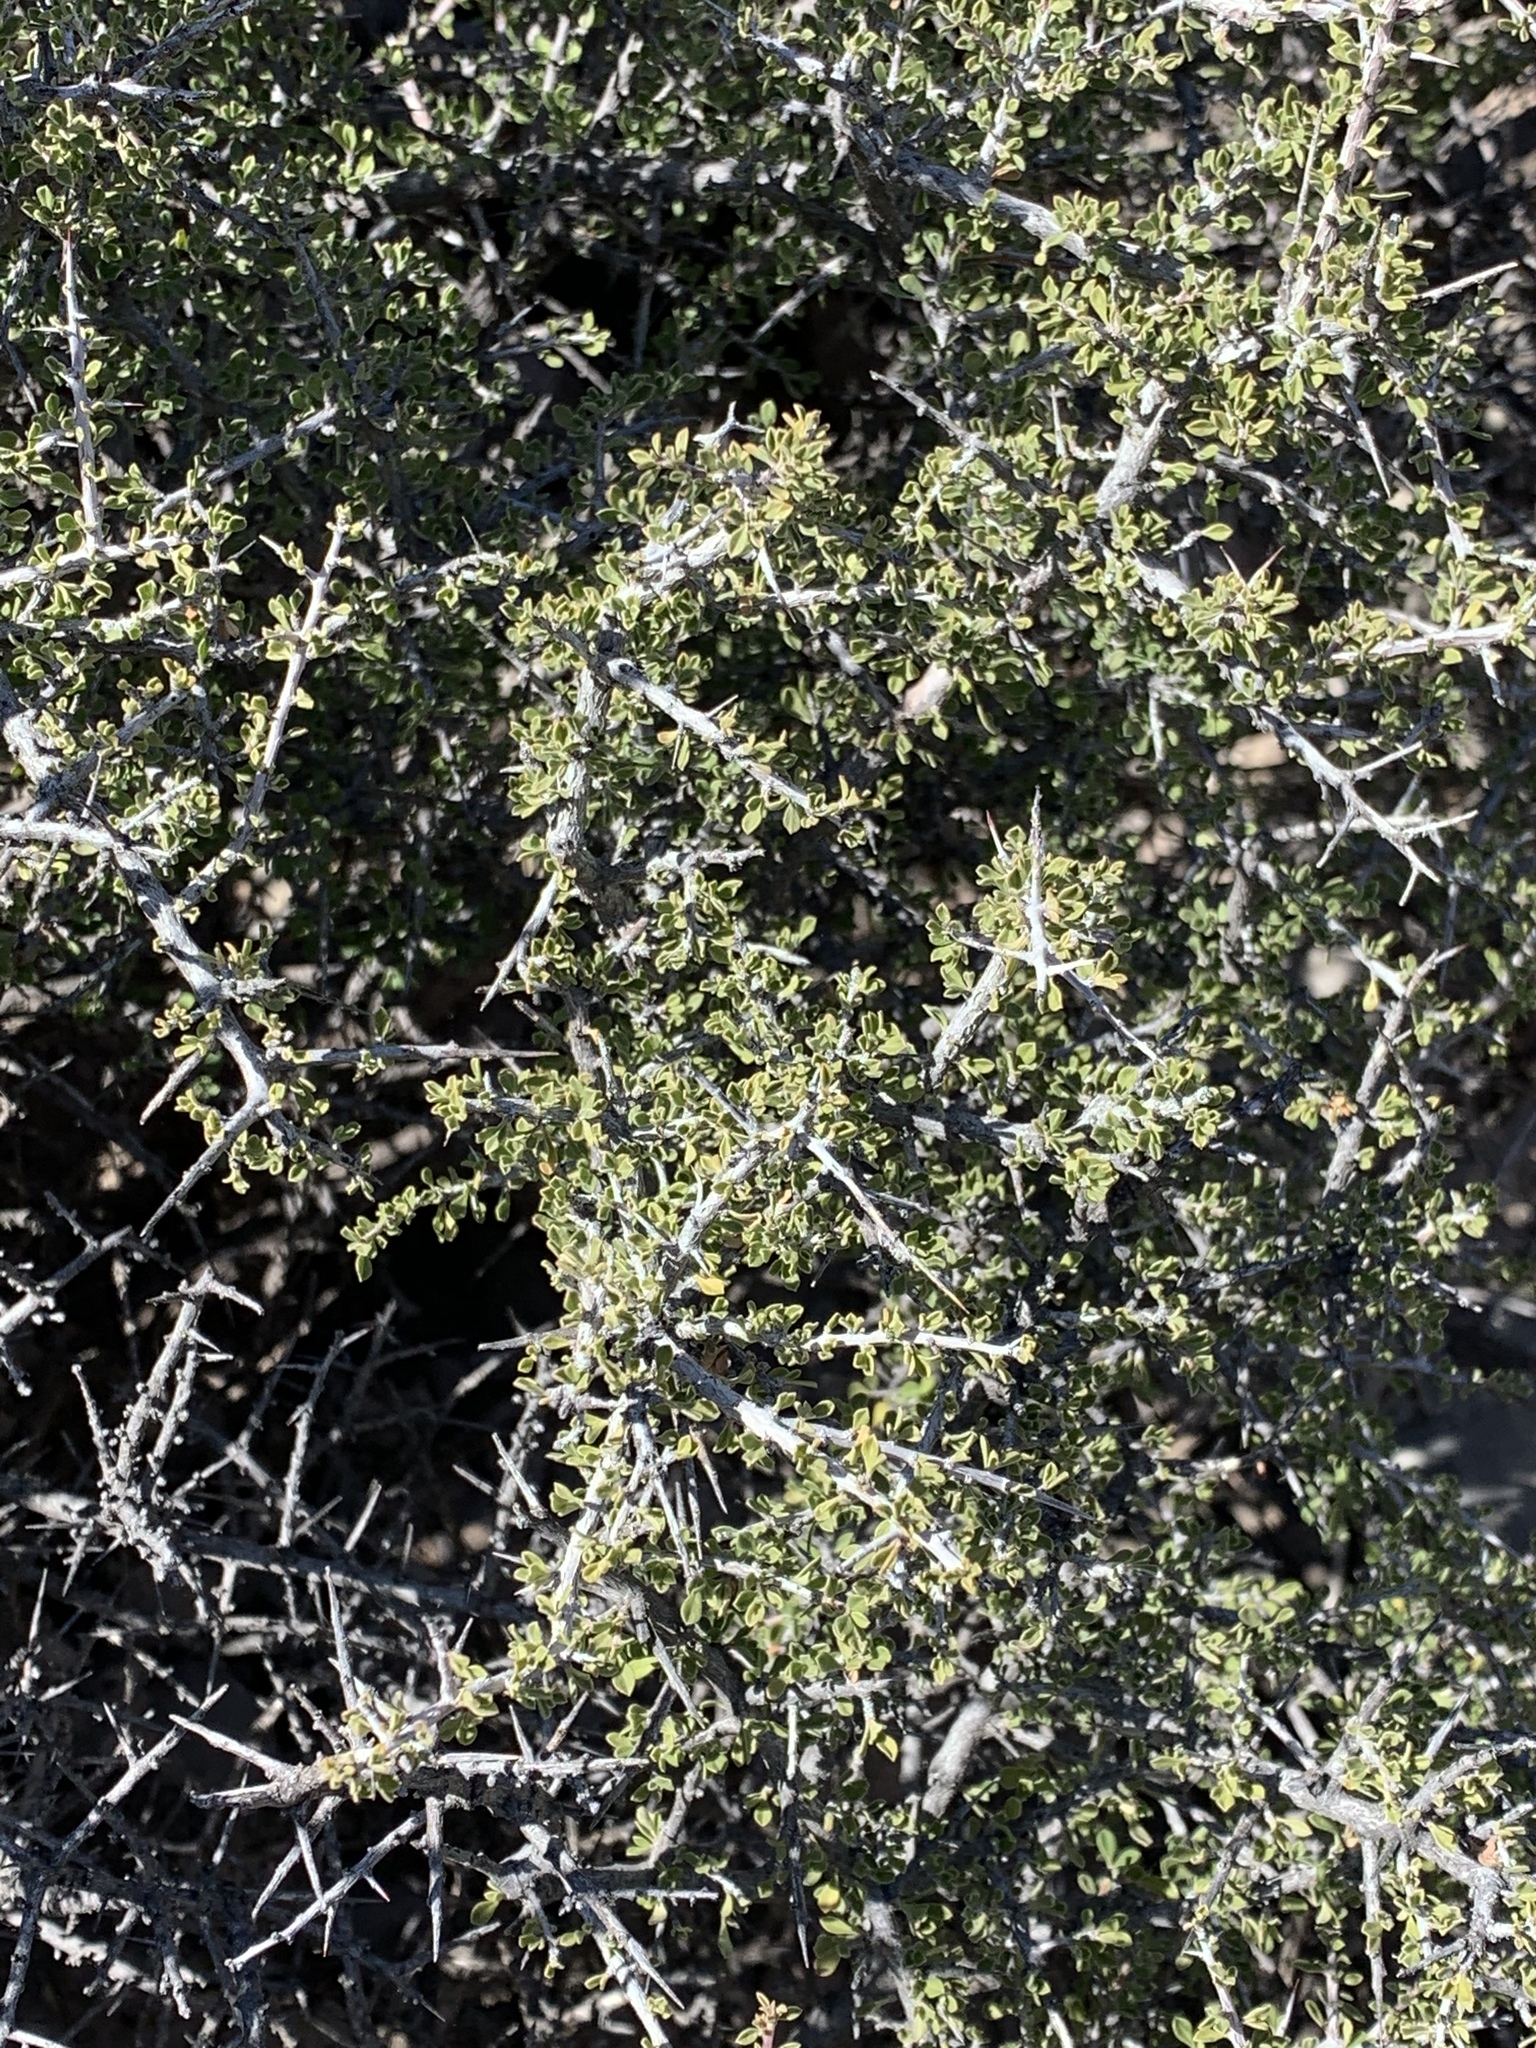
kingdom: Plantae
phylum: Tracheophyta
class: Magnoliopsida
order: Rosales
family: Rhamnaceae
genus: Condalia
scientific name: Condalia warnockii
